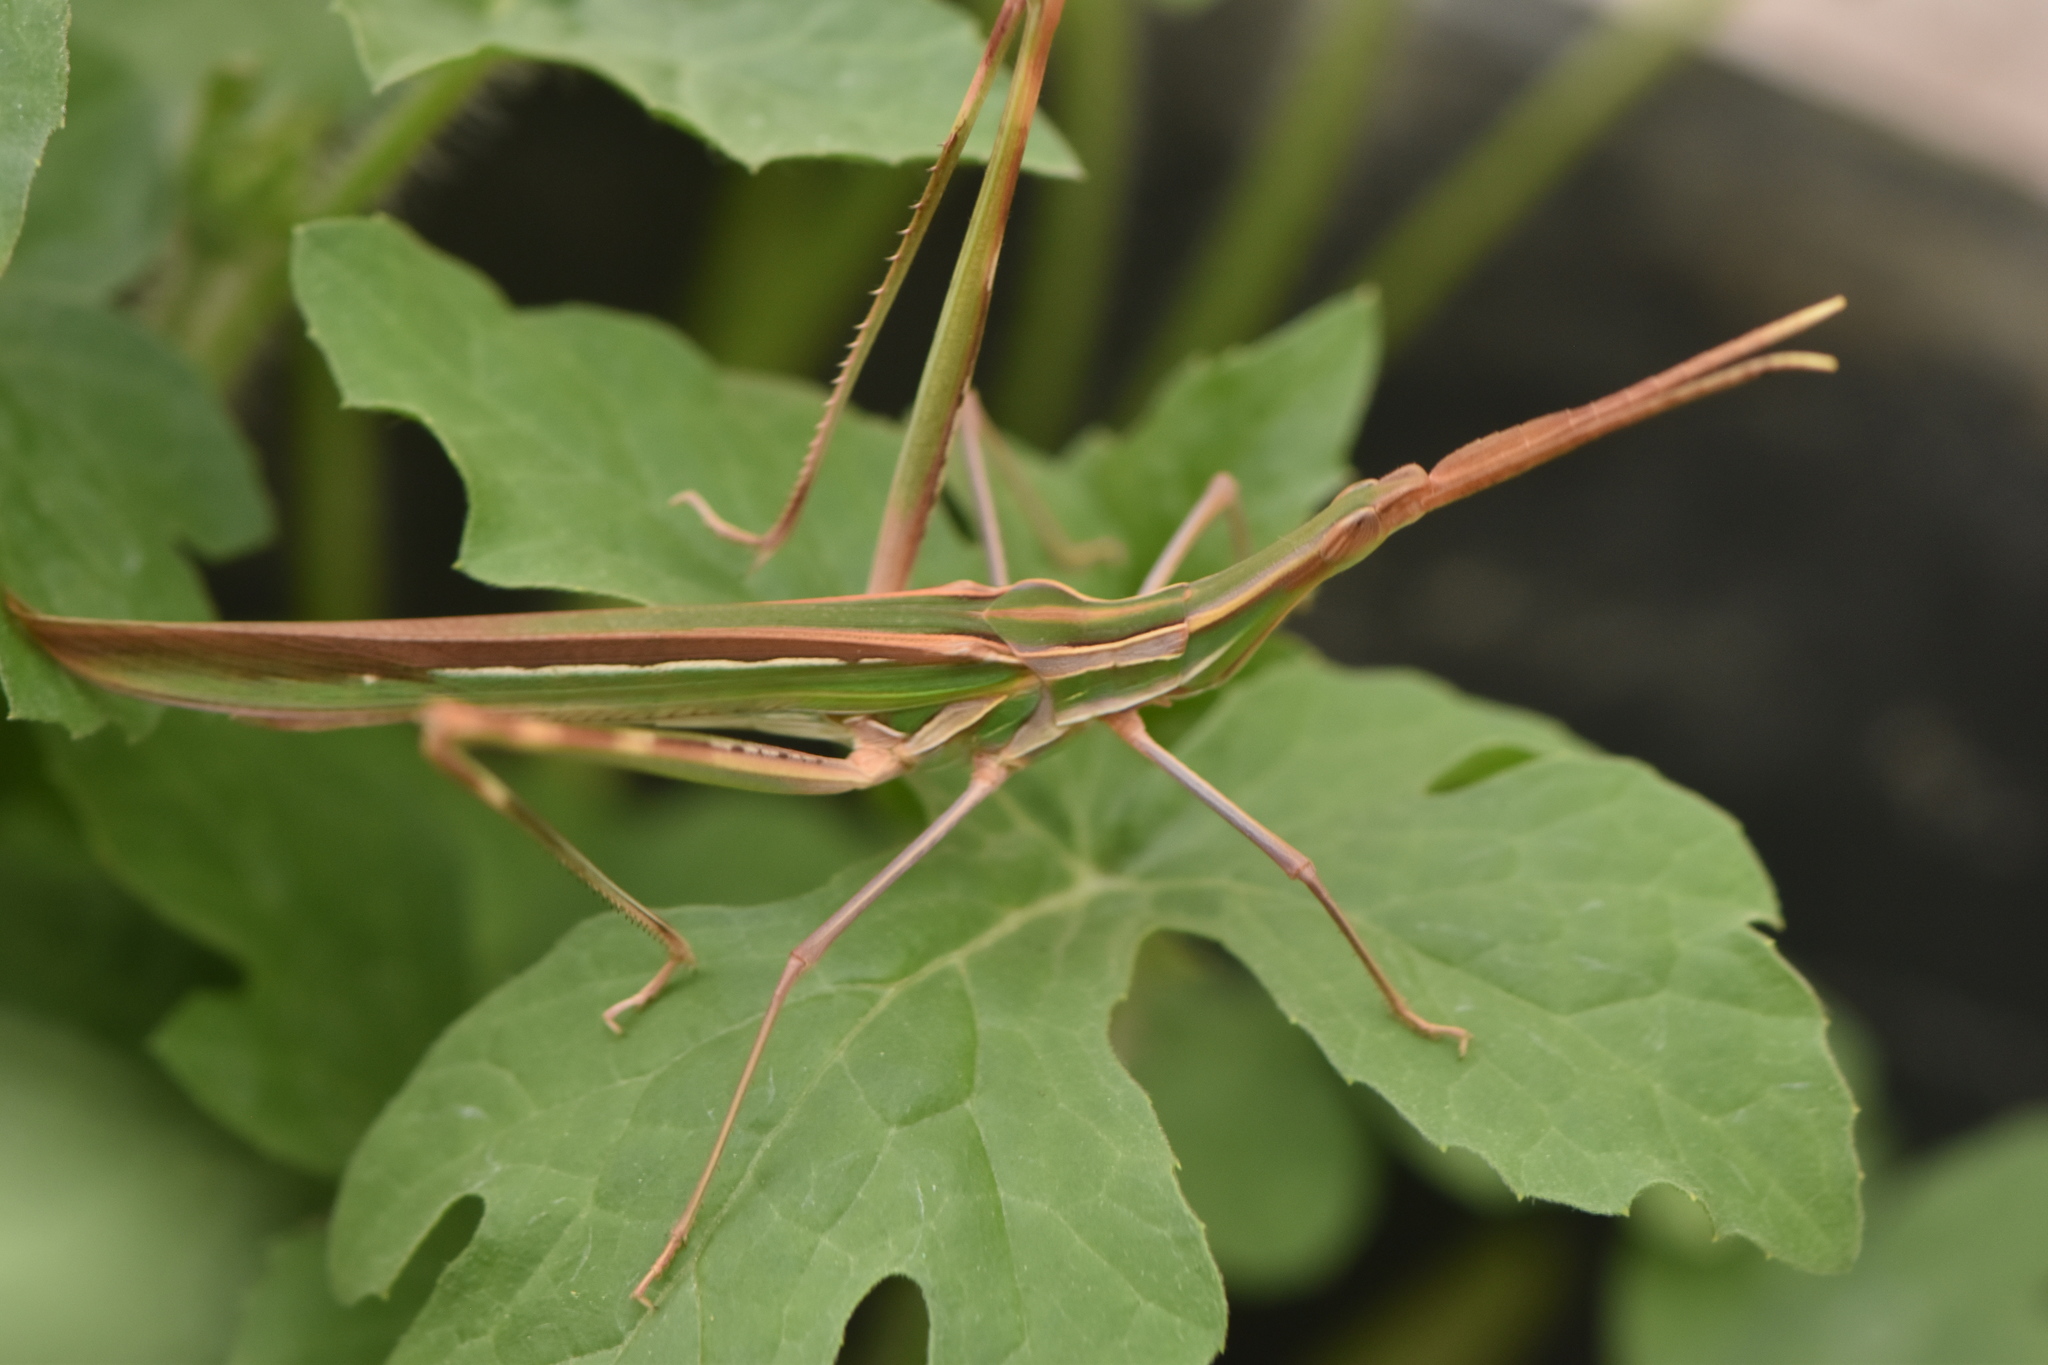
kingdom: Animalia
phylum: Arthropoda
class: Insecta
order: Orthoptera
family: Acrididae
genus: Truxalis
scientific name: Truxalis nasuta
